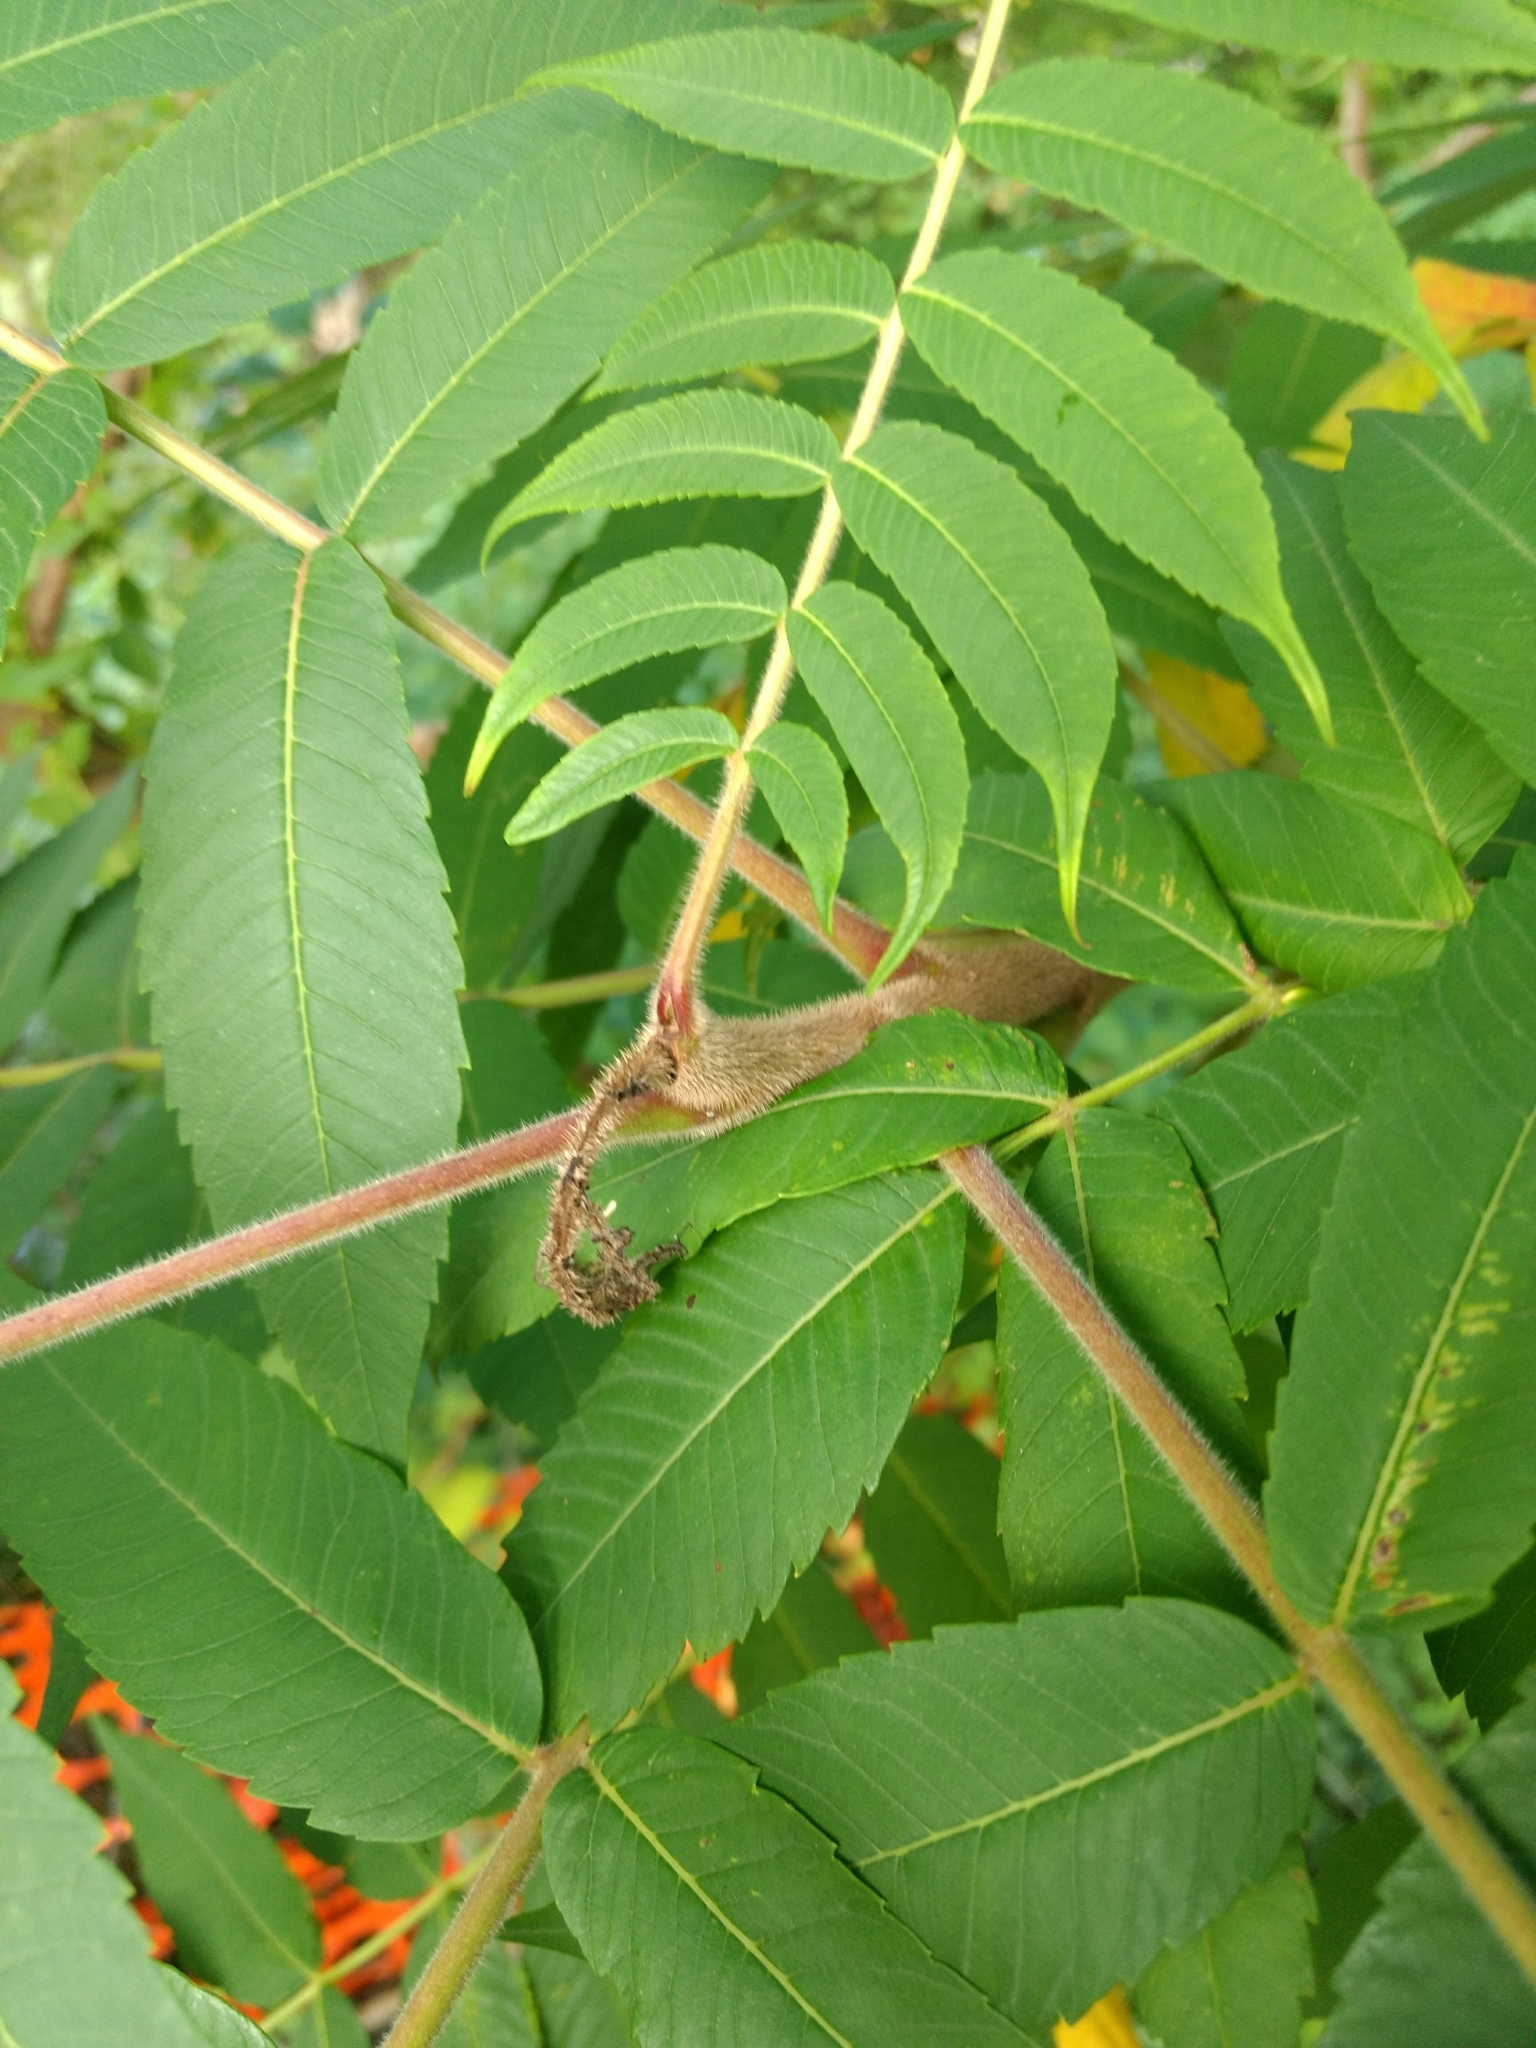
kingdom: Animalia
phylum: Arthropoda
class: Insecta
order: Lepidoptera
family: Nepticulidae
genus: Stigmella
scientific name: Stigmella intermedia
